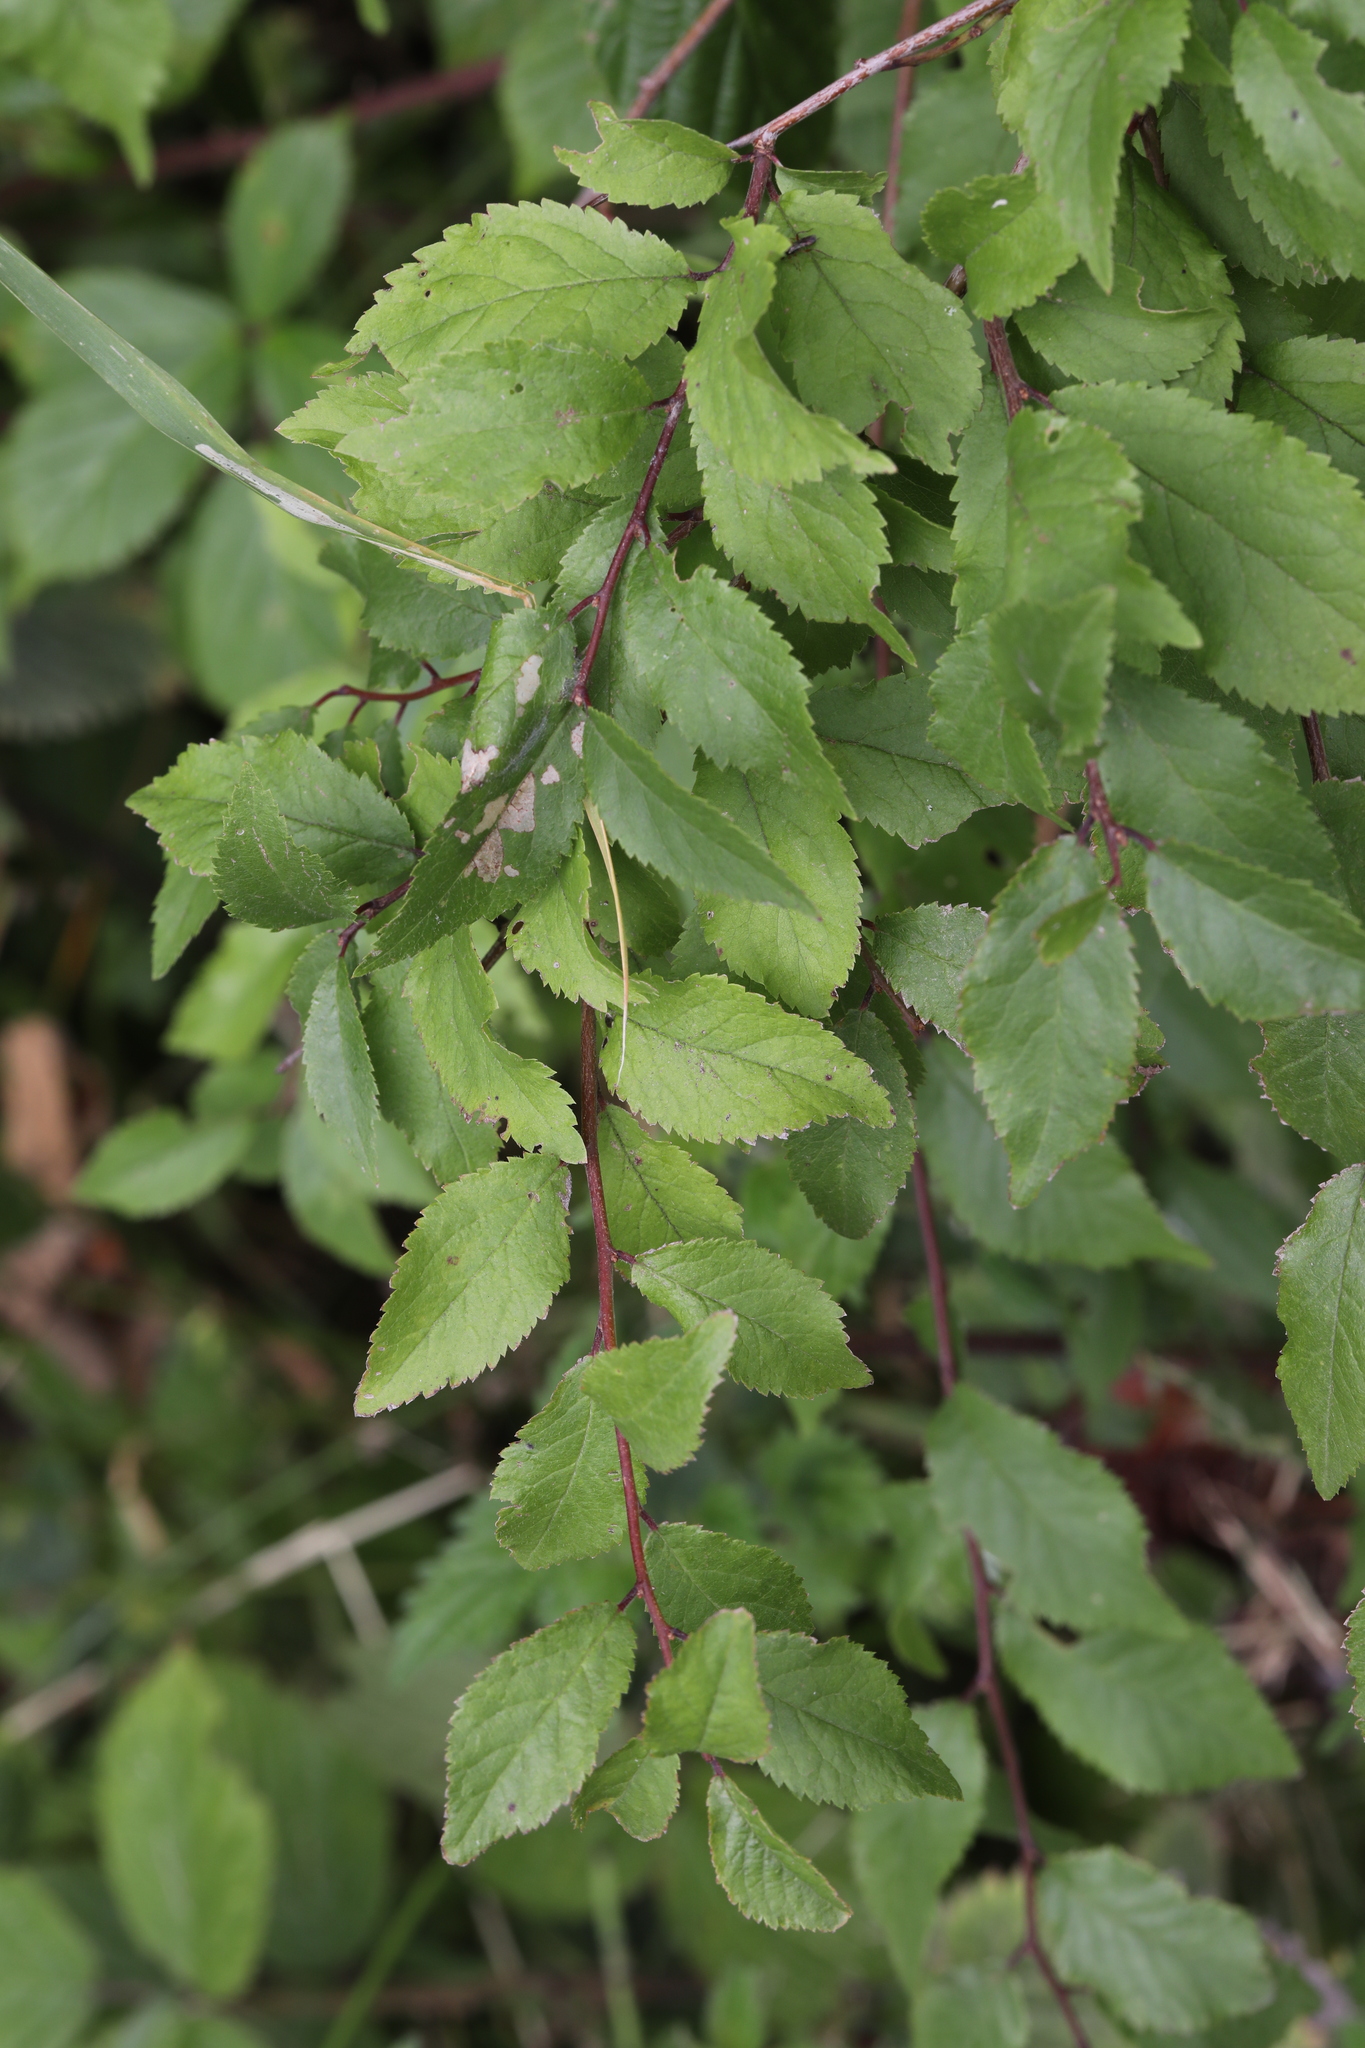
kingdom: Plantae
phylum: Tracheophyta
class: Magnoliopsida
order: Rosales
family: Rosaceae
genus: Prunus
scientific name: Prunus spinosa
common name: Blackthorn
